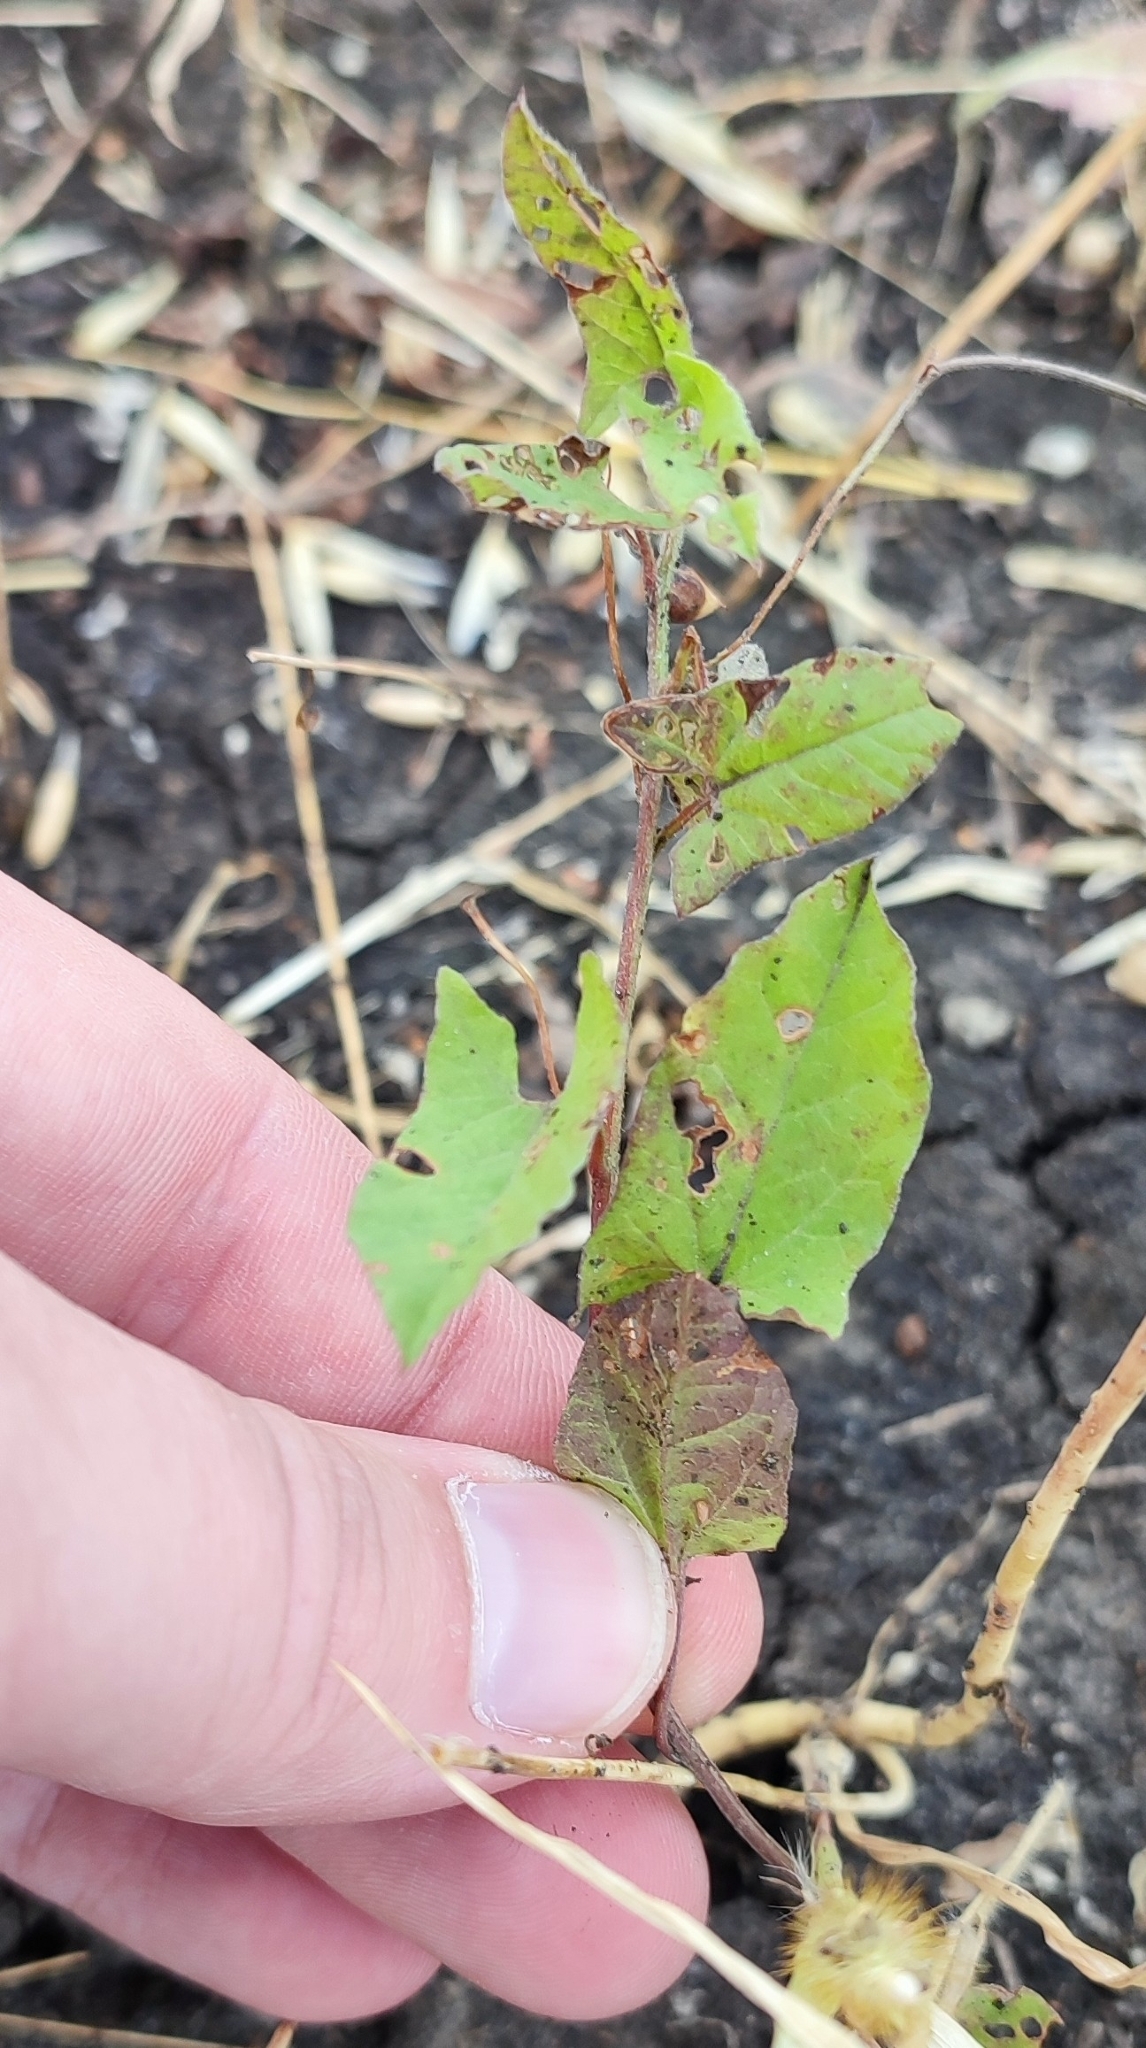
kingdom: Plantae
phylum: Tracheophyta
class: Magnoliopsida
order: Solanales
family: Convolvulaceae
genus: Convolvulus
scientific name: Convolvulus arvensis
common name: Field bindweed
